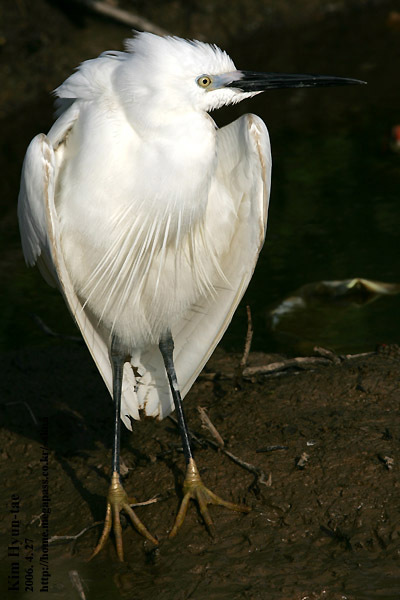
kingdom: Animalia
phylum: Chordata
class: Aves
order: Pelecaniformes
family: Ardeidae
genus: Egretta
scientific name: Egretta garzetta
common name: Little egret
